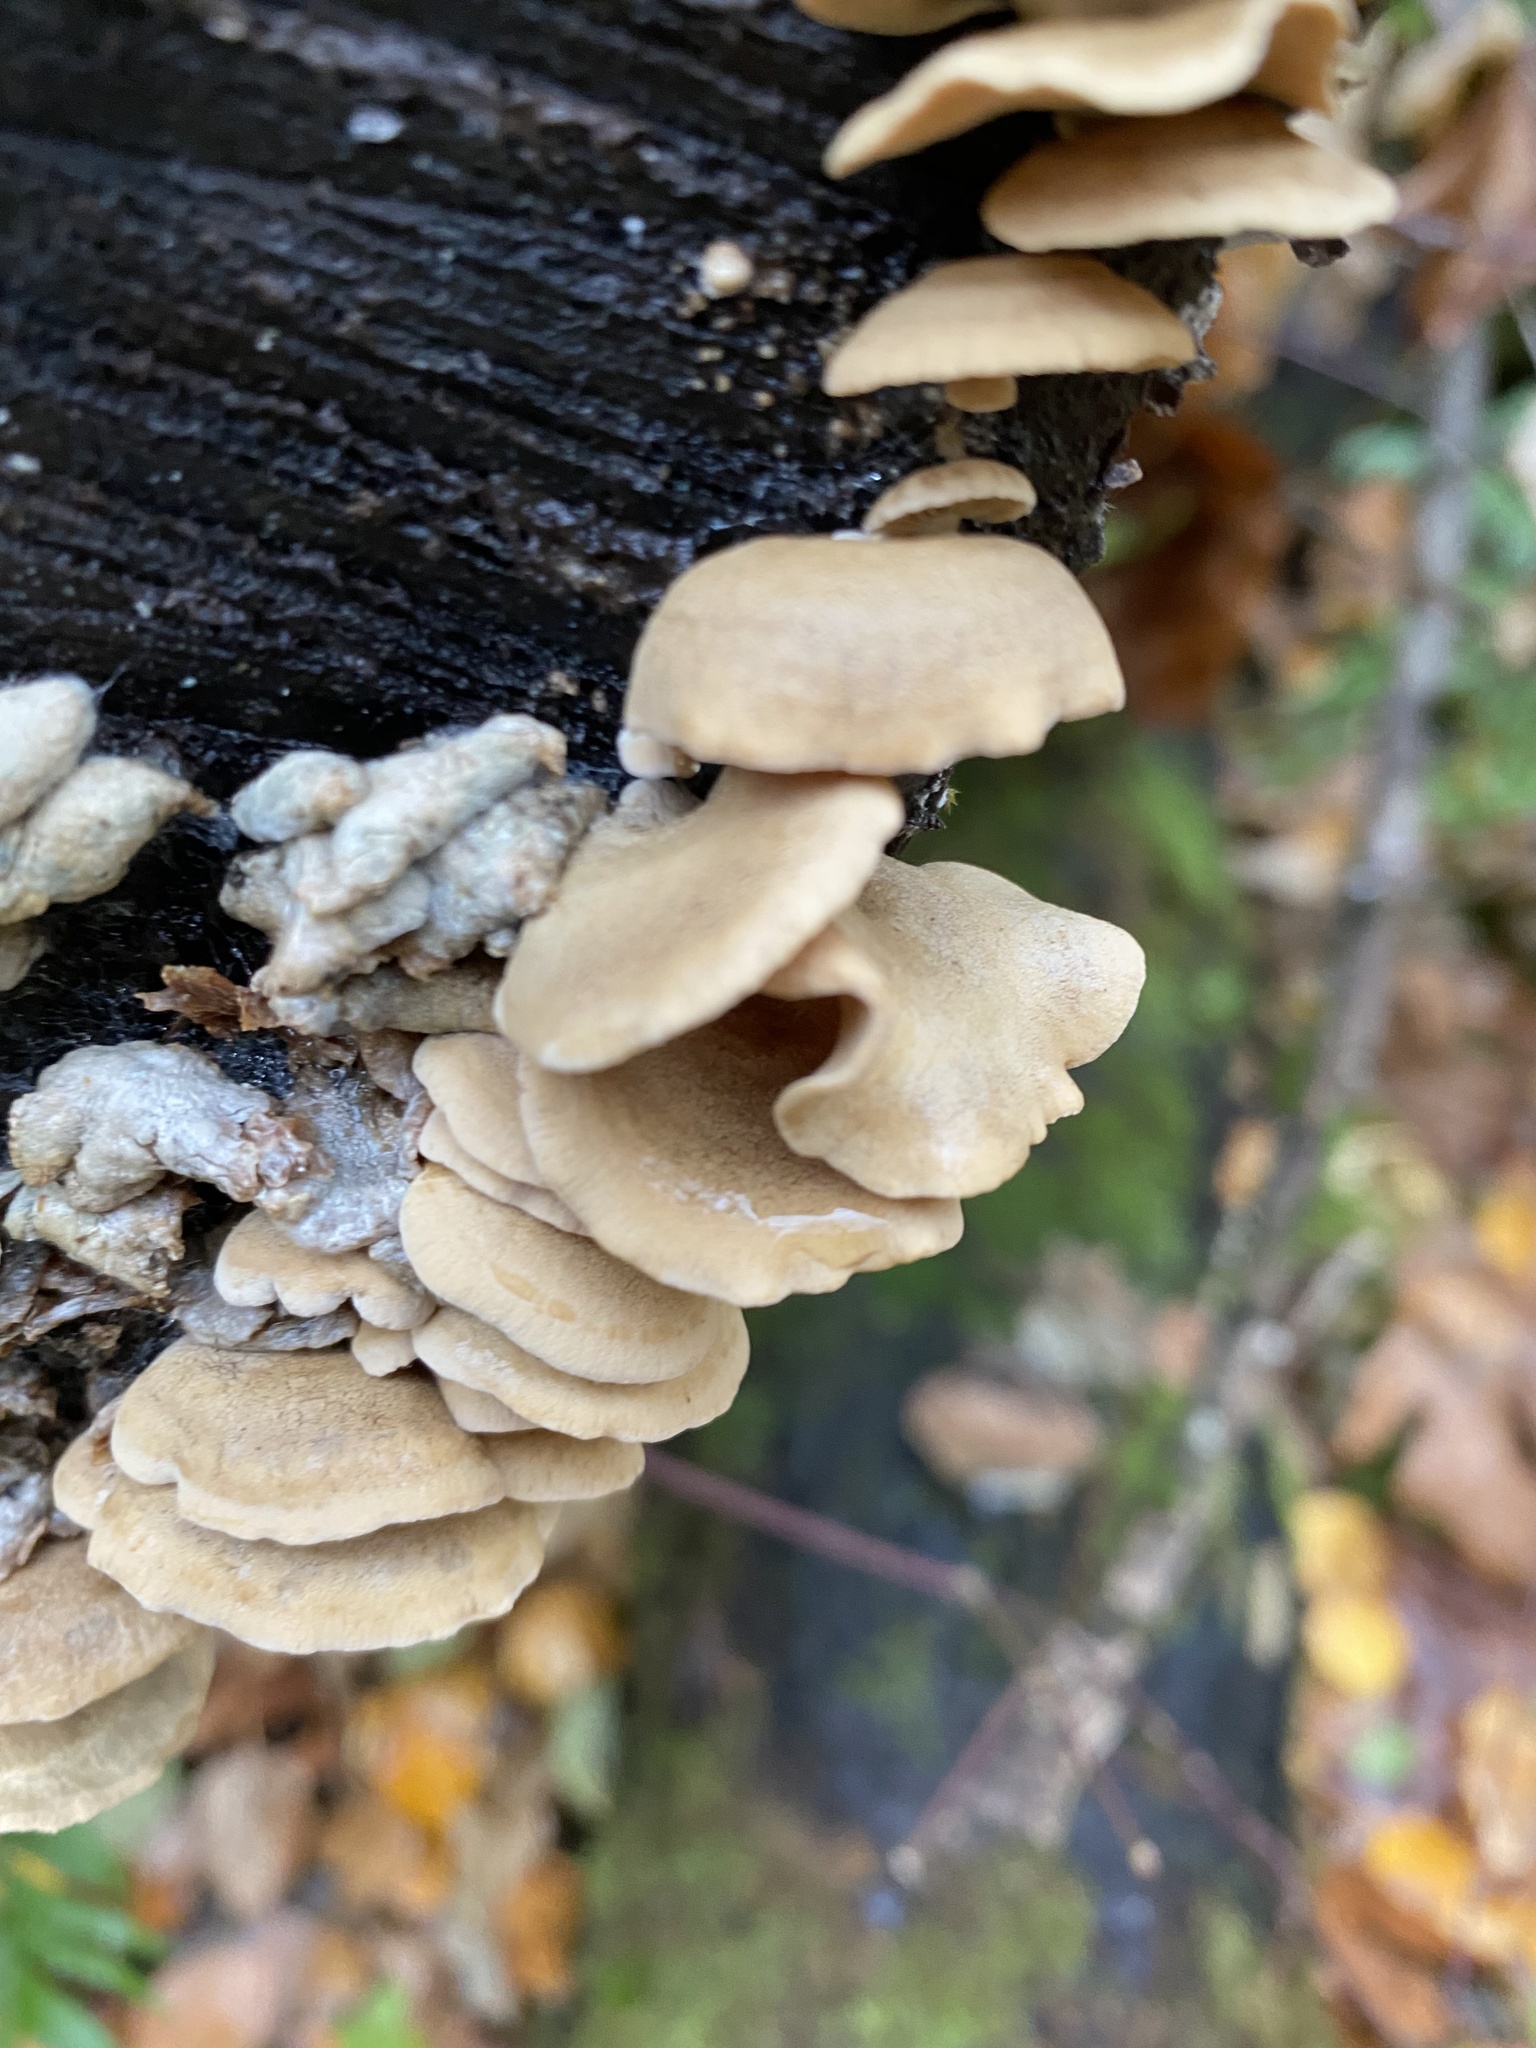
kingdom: Fungi
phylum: Basidiomycota
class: Agaricomycetes
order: Agaricales
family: Mycenaceae
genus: Panellus
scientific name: Panellus stipticus
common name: Bitter oysterling
